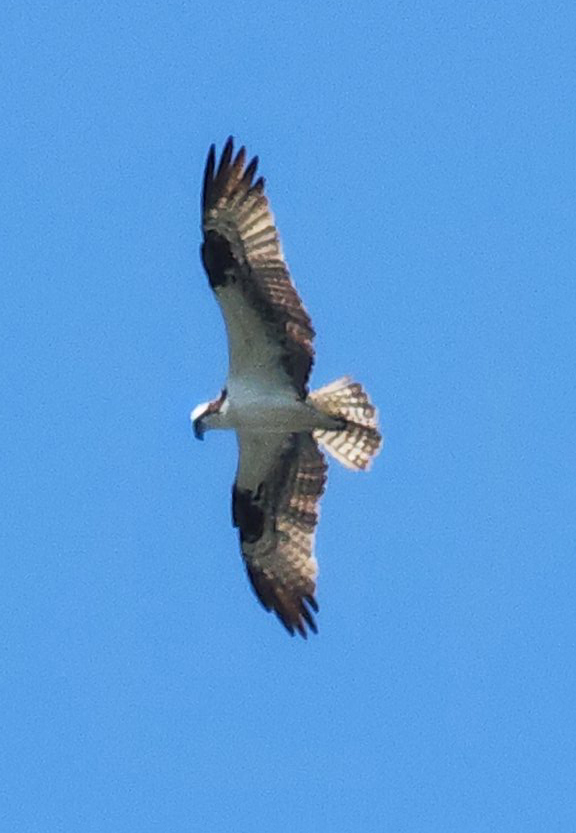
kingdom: Animalia
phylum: Chordata
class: Aves
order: Accipitriformes
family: Pandionidae
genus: Pandion
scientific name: Pandion haliaetus
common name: Osprey
